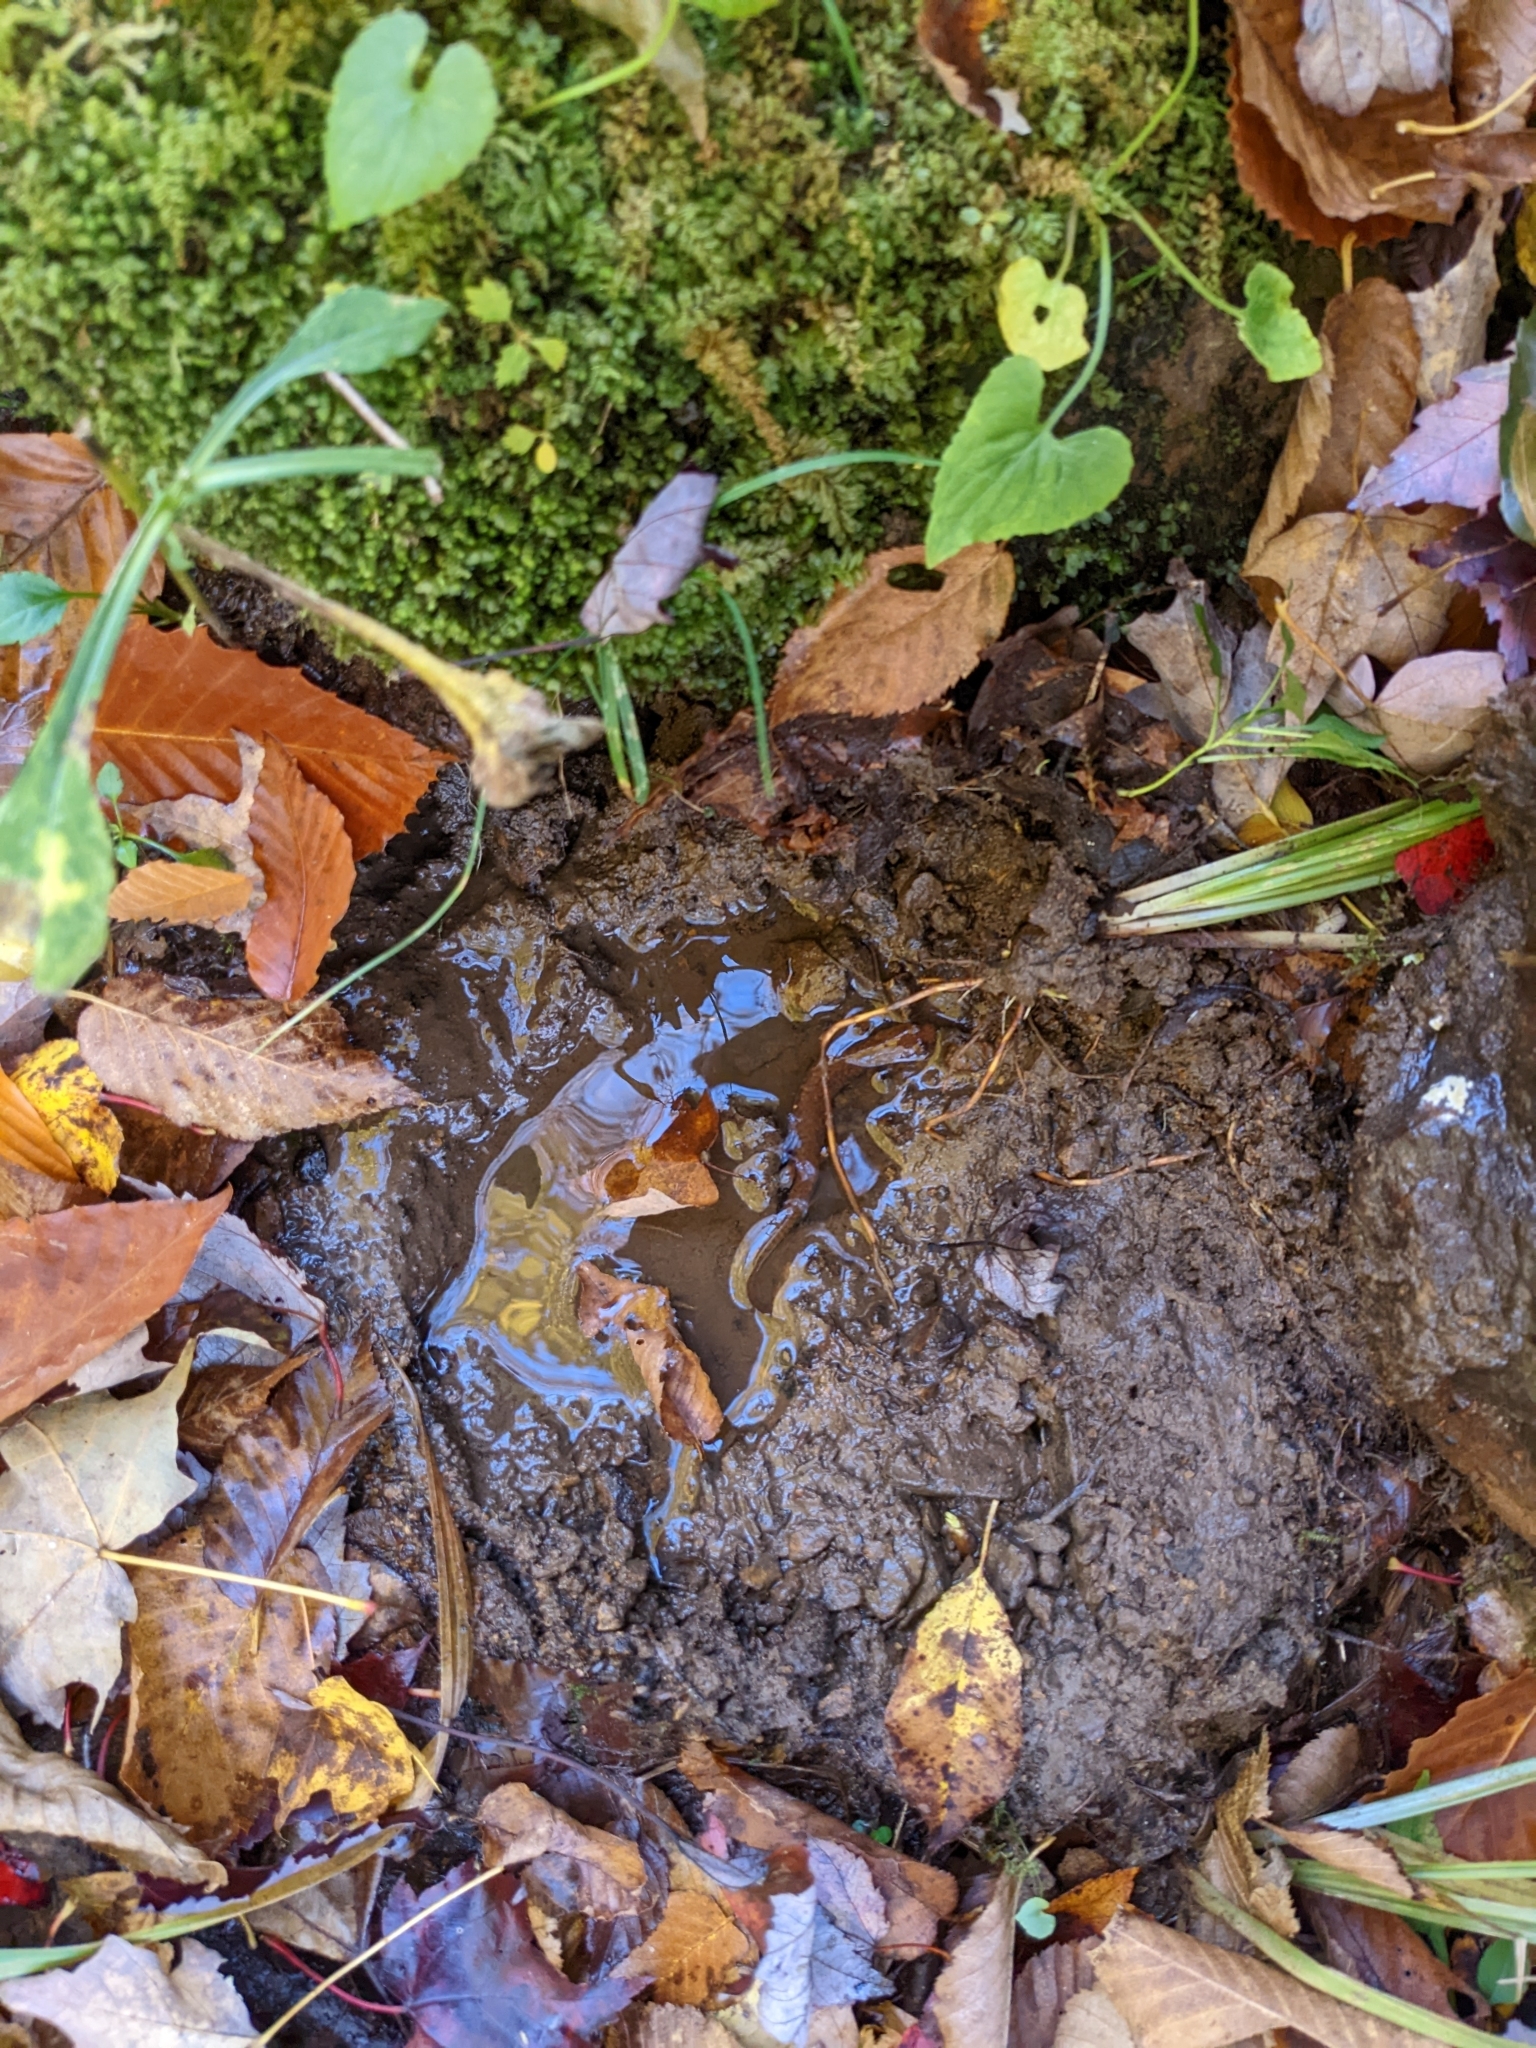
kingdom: Animalia
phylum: Chordata
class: Amphibia
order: Caudata
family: Plethodontidae
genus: Gyrinophilus
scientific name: Gyrinophilus porphyriticus
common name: Spring salamander
